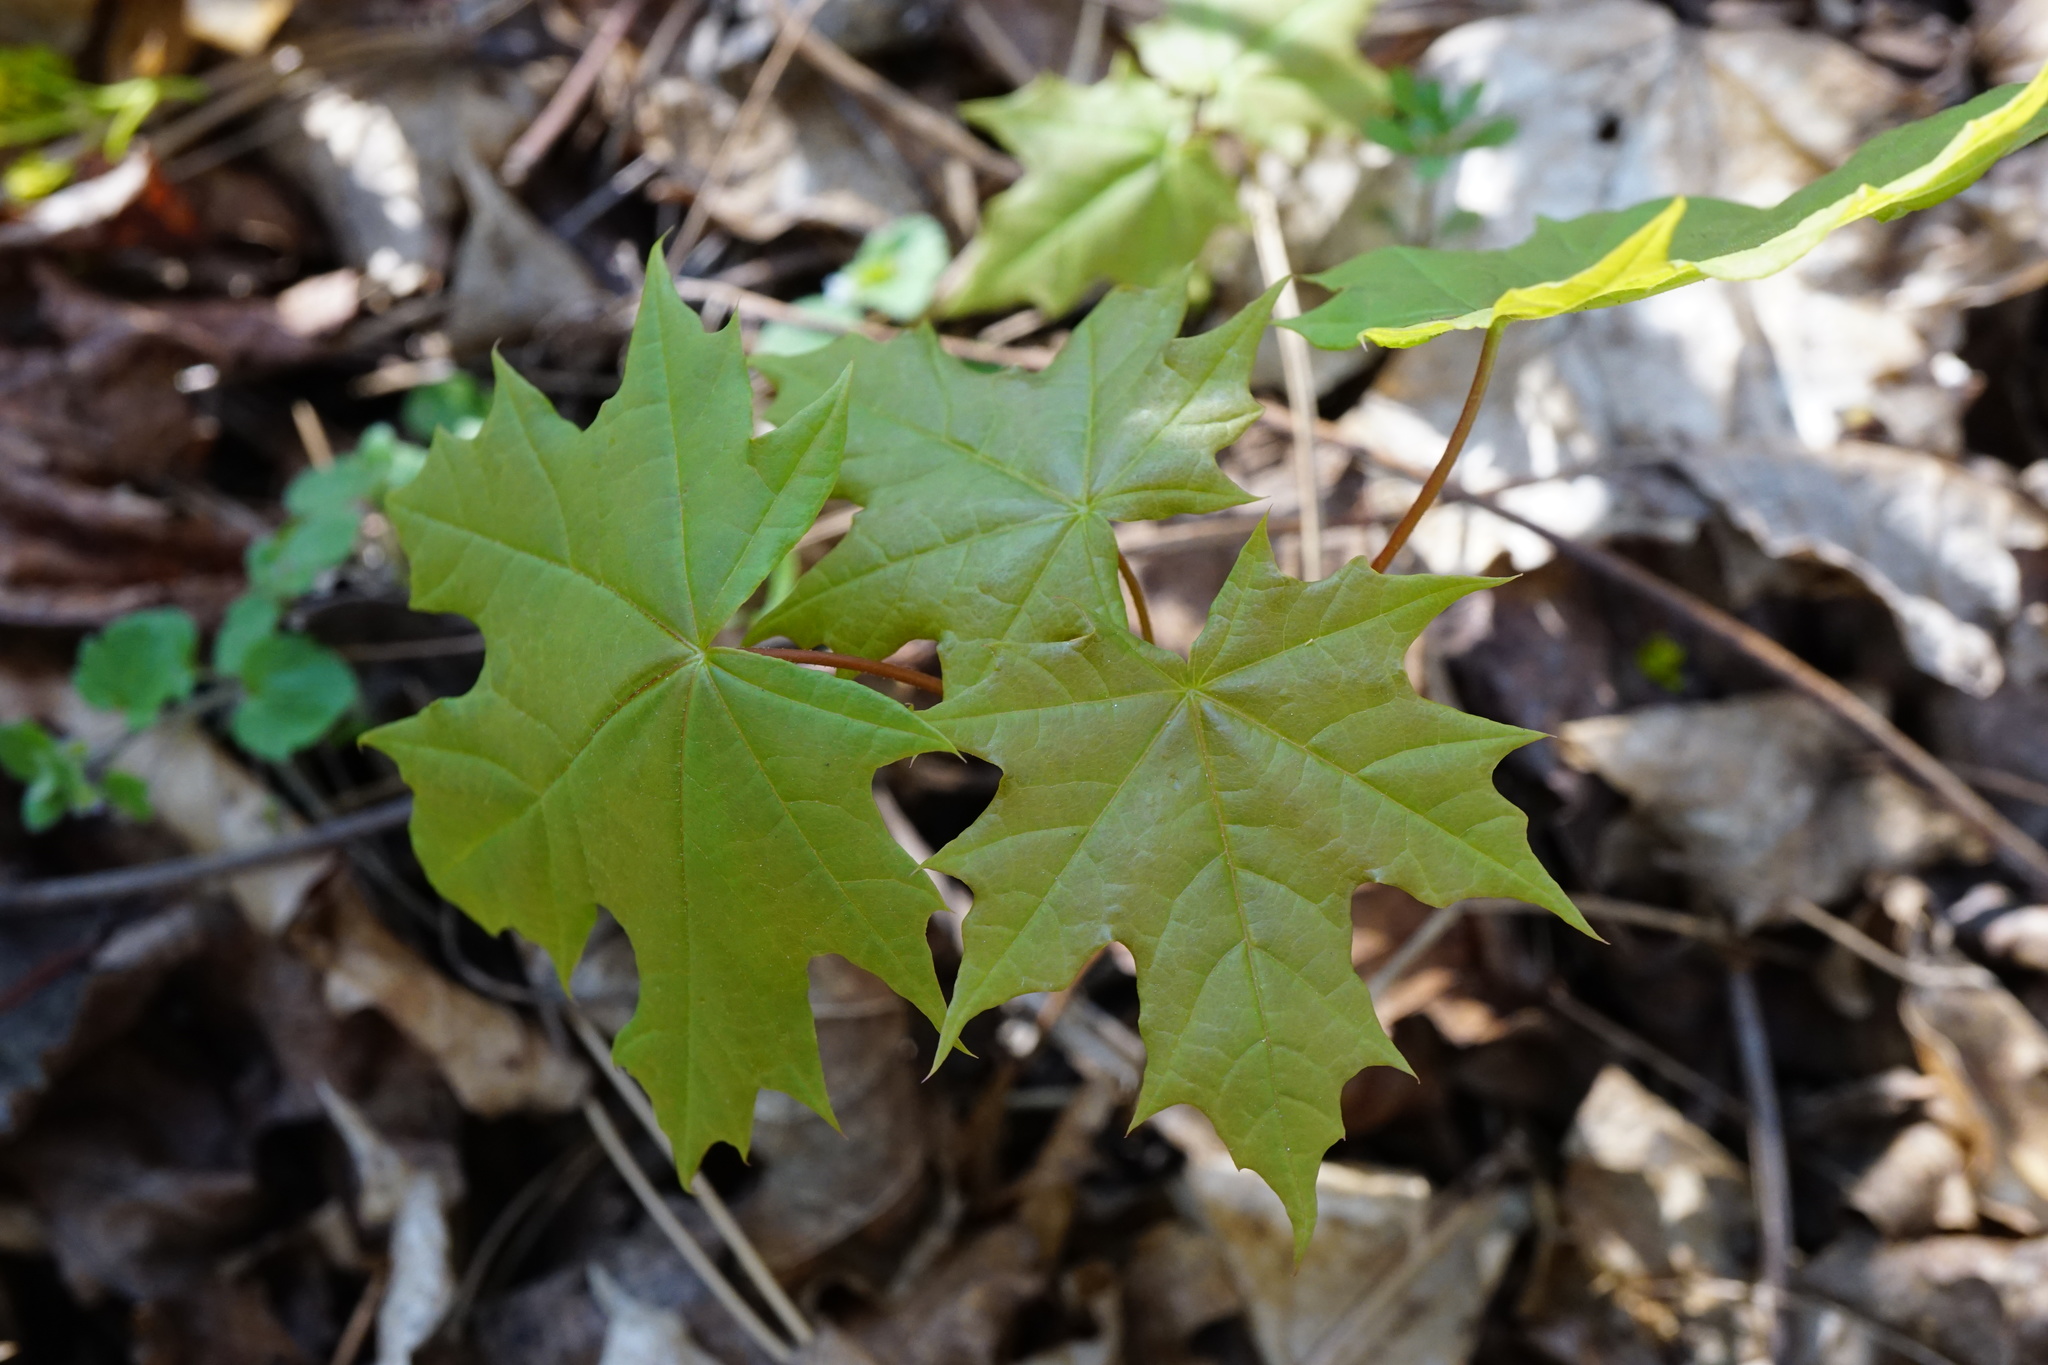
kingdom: Plantae
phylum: Tracheophyta
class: Magnoliopsida
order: Sapindales
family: Sapindaceae
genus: Acer
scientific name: Acer platanoides
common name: Norway maple
